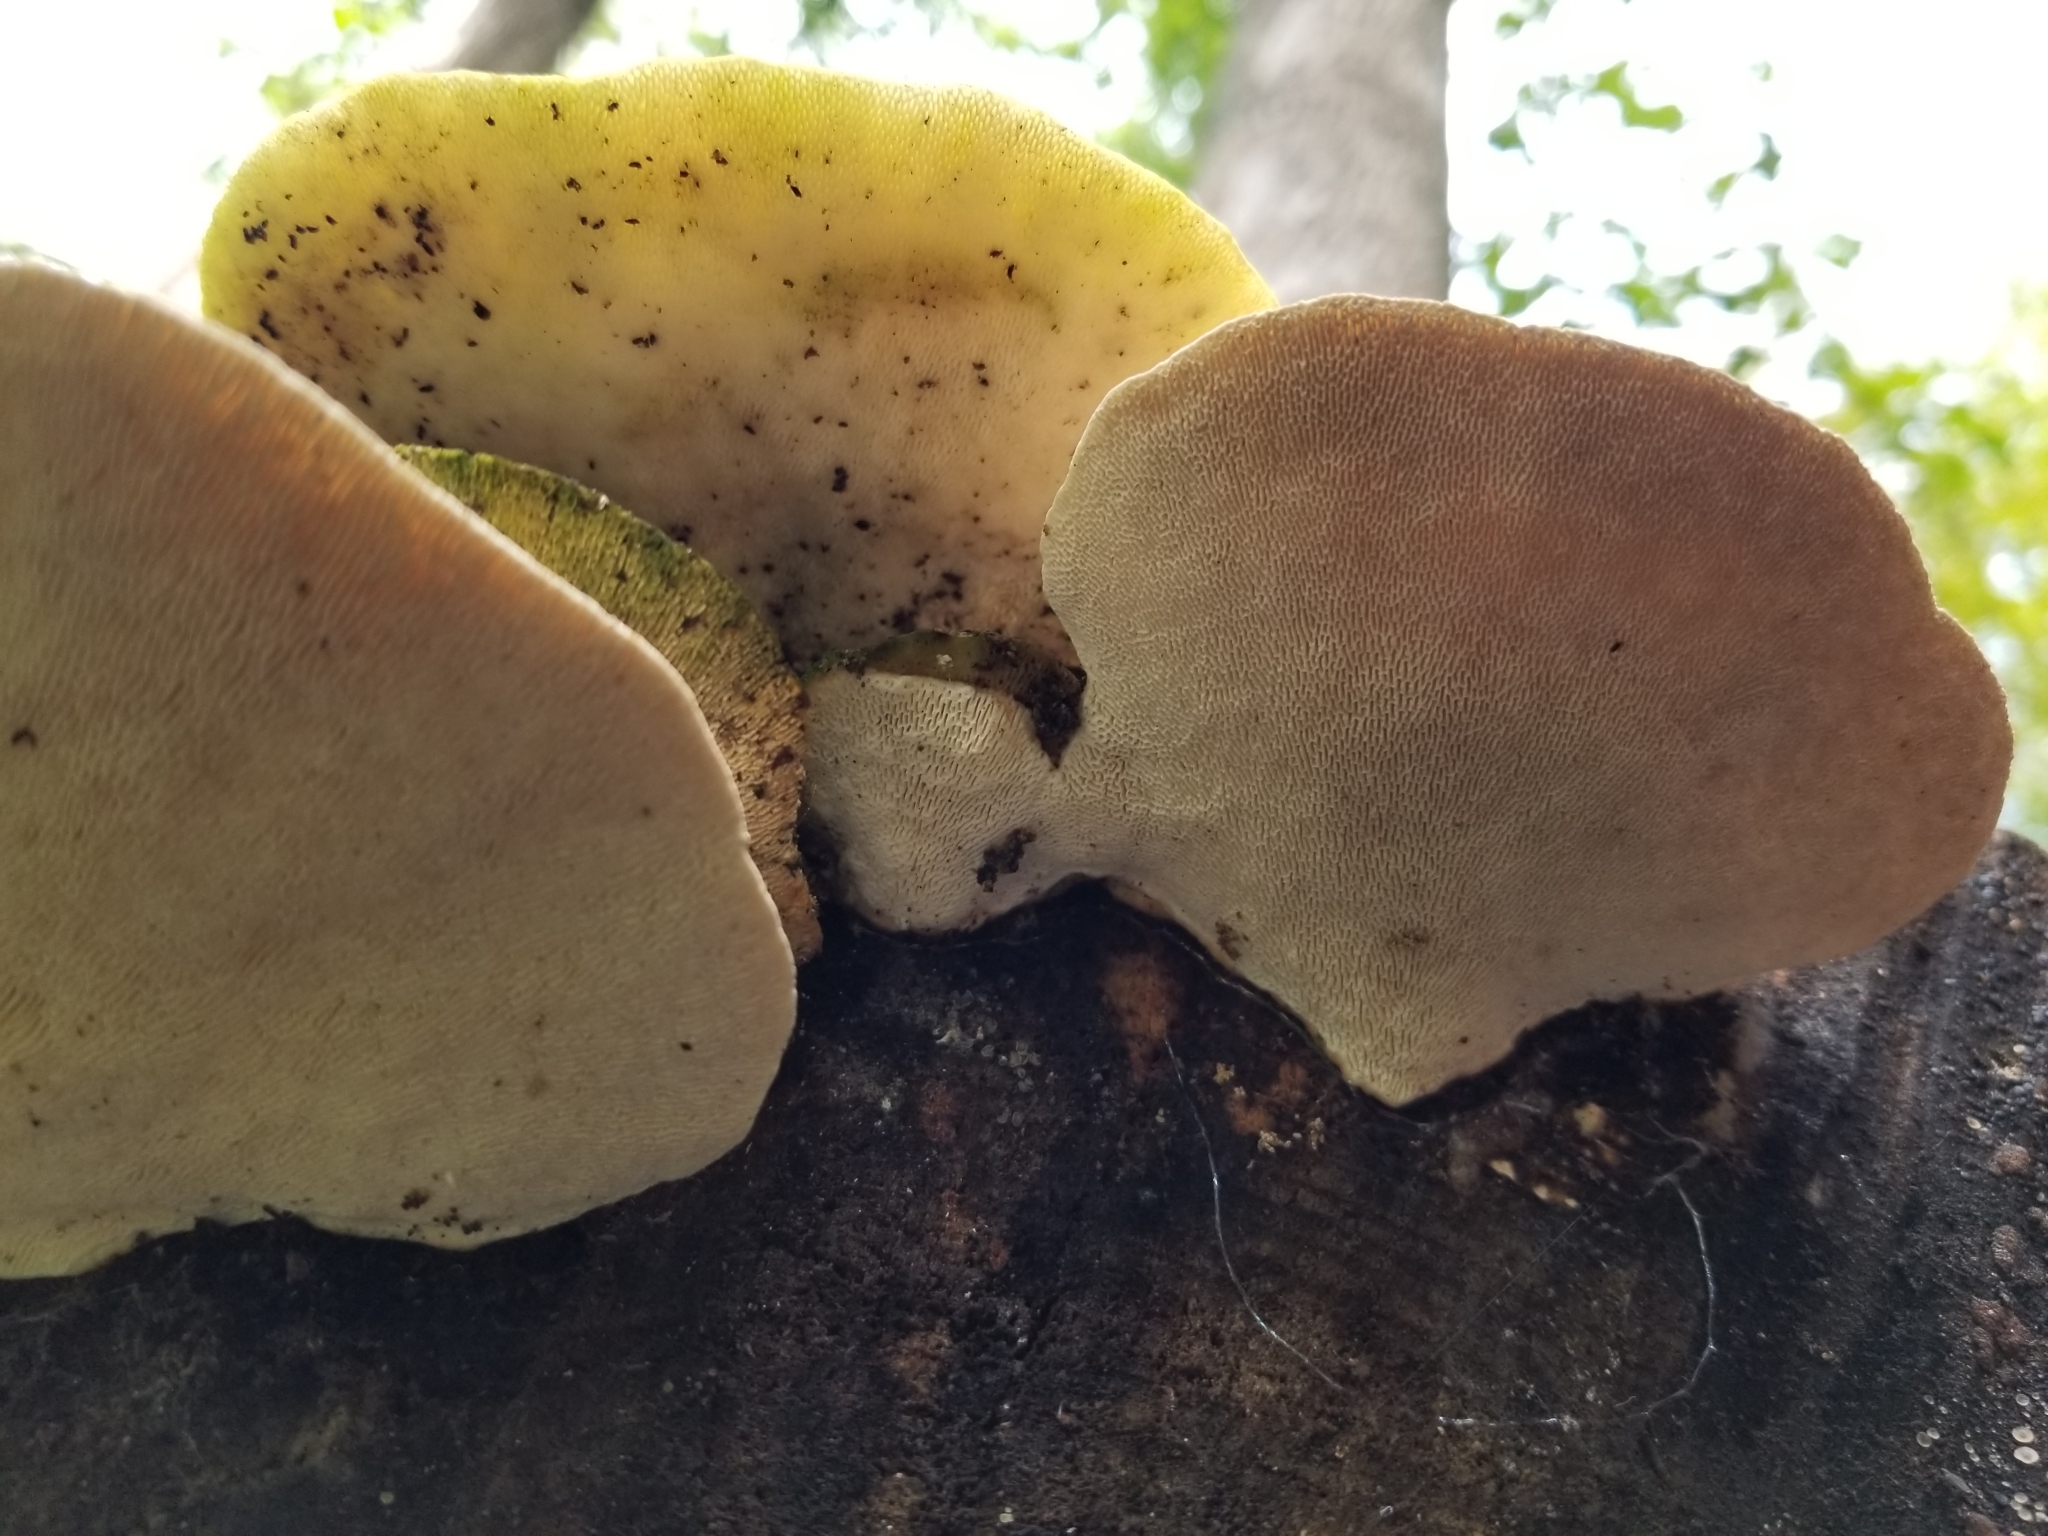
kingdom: Fungi
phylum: Basidiomycota
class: Agaricomycetes
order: Polyporales
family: Polyporaceae
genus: Trametes
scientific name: Trametes gibbosa
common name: Lumpy bracket
